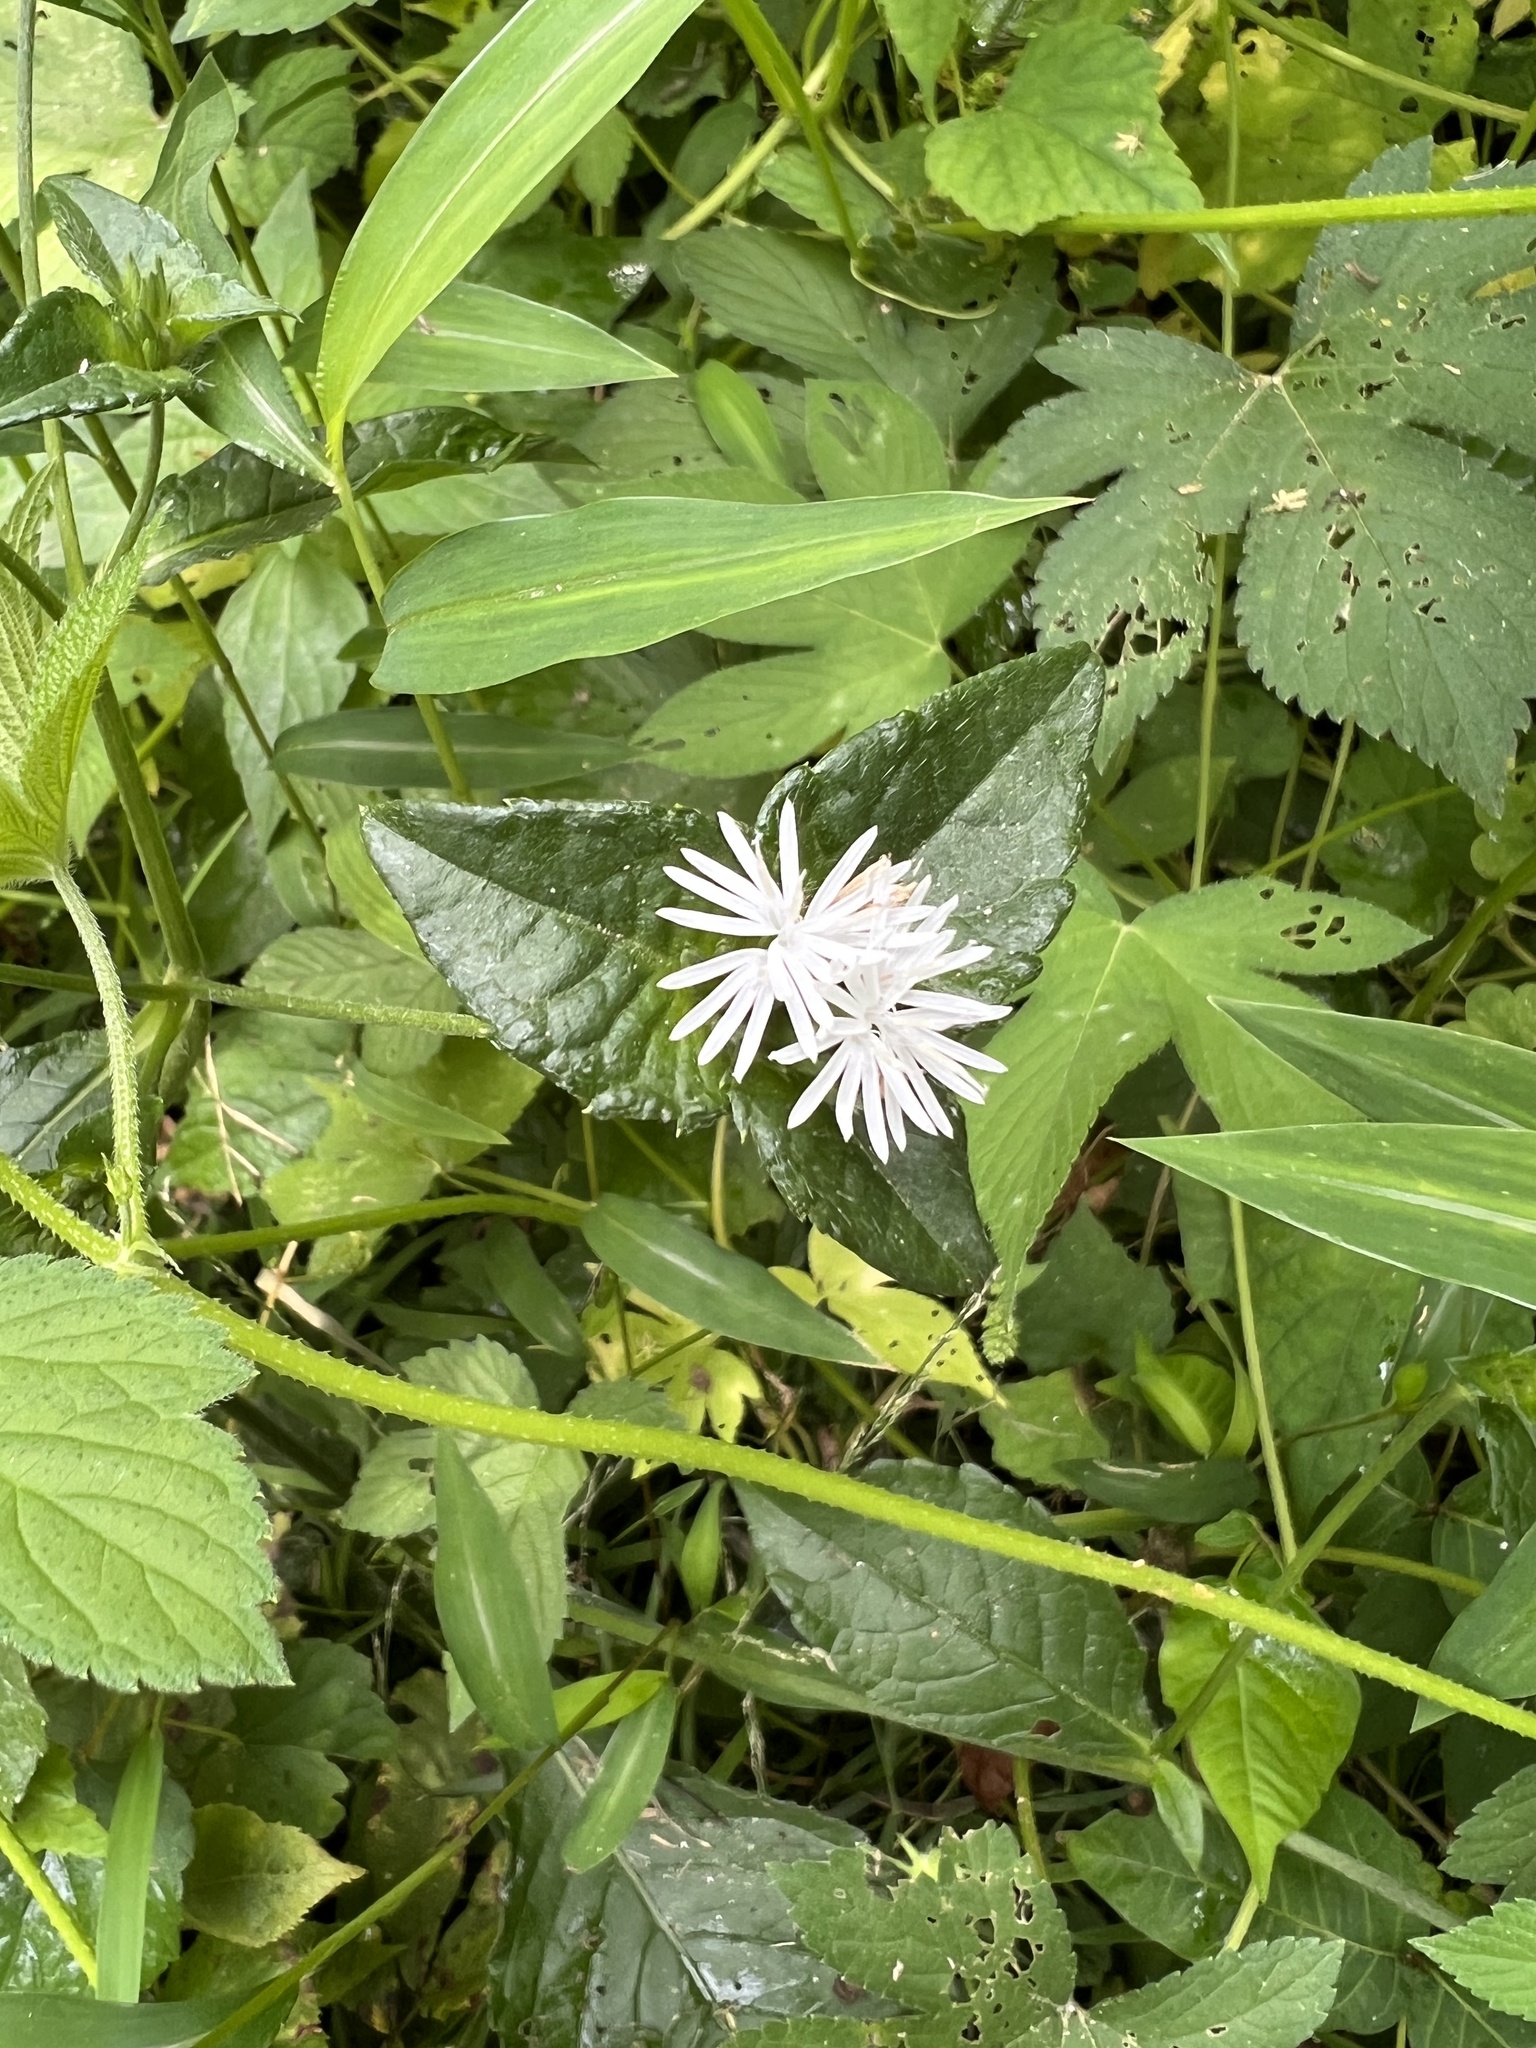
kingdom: Plantae
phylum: Tracheophyta
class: Magnoliopsida
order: Asterales
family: Asteraceae
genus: Elephantopus
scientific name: Elephantopus carolinianus
